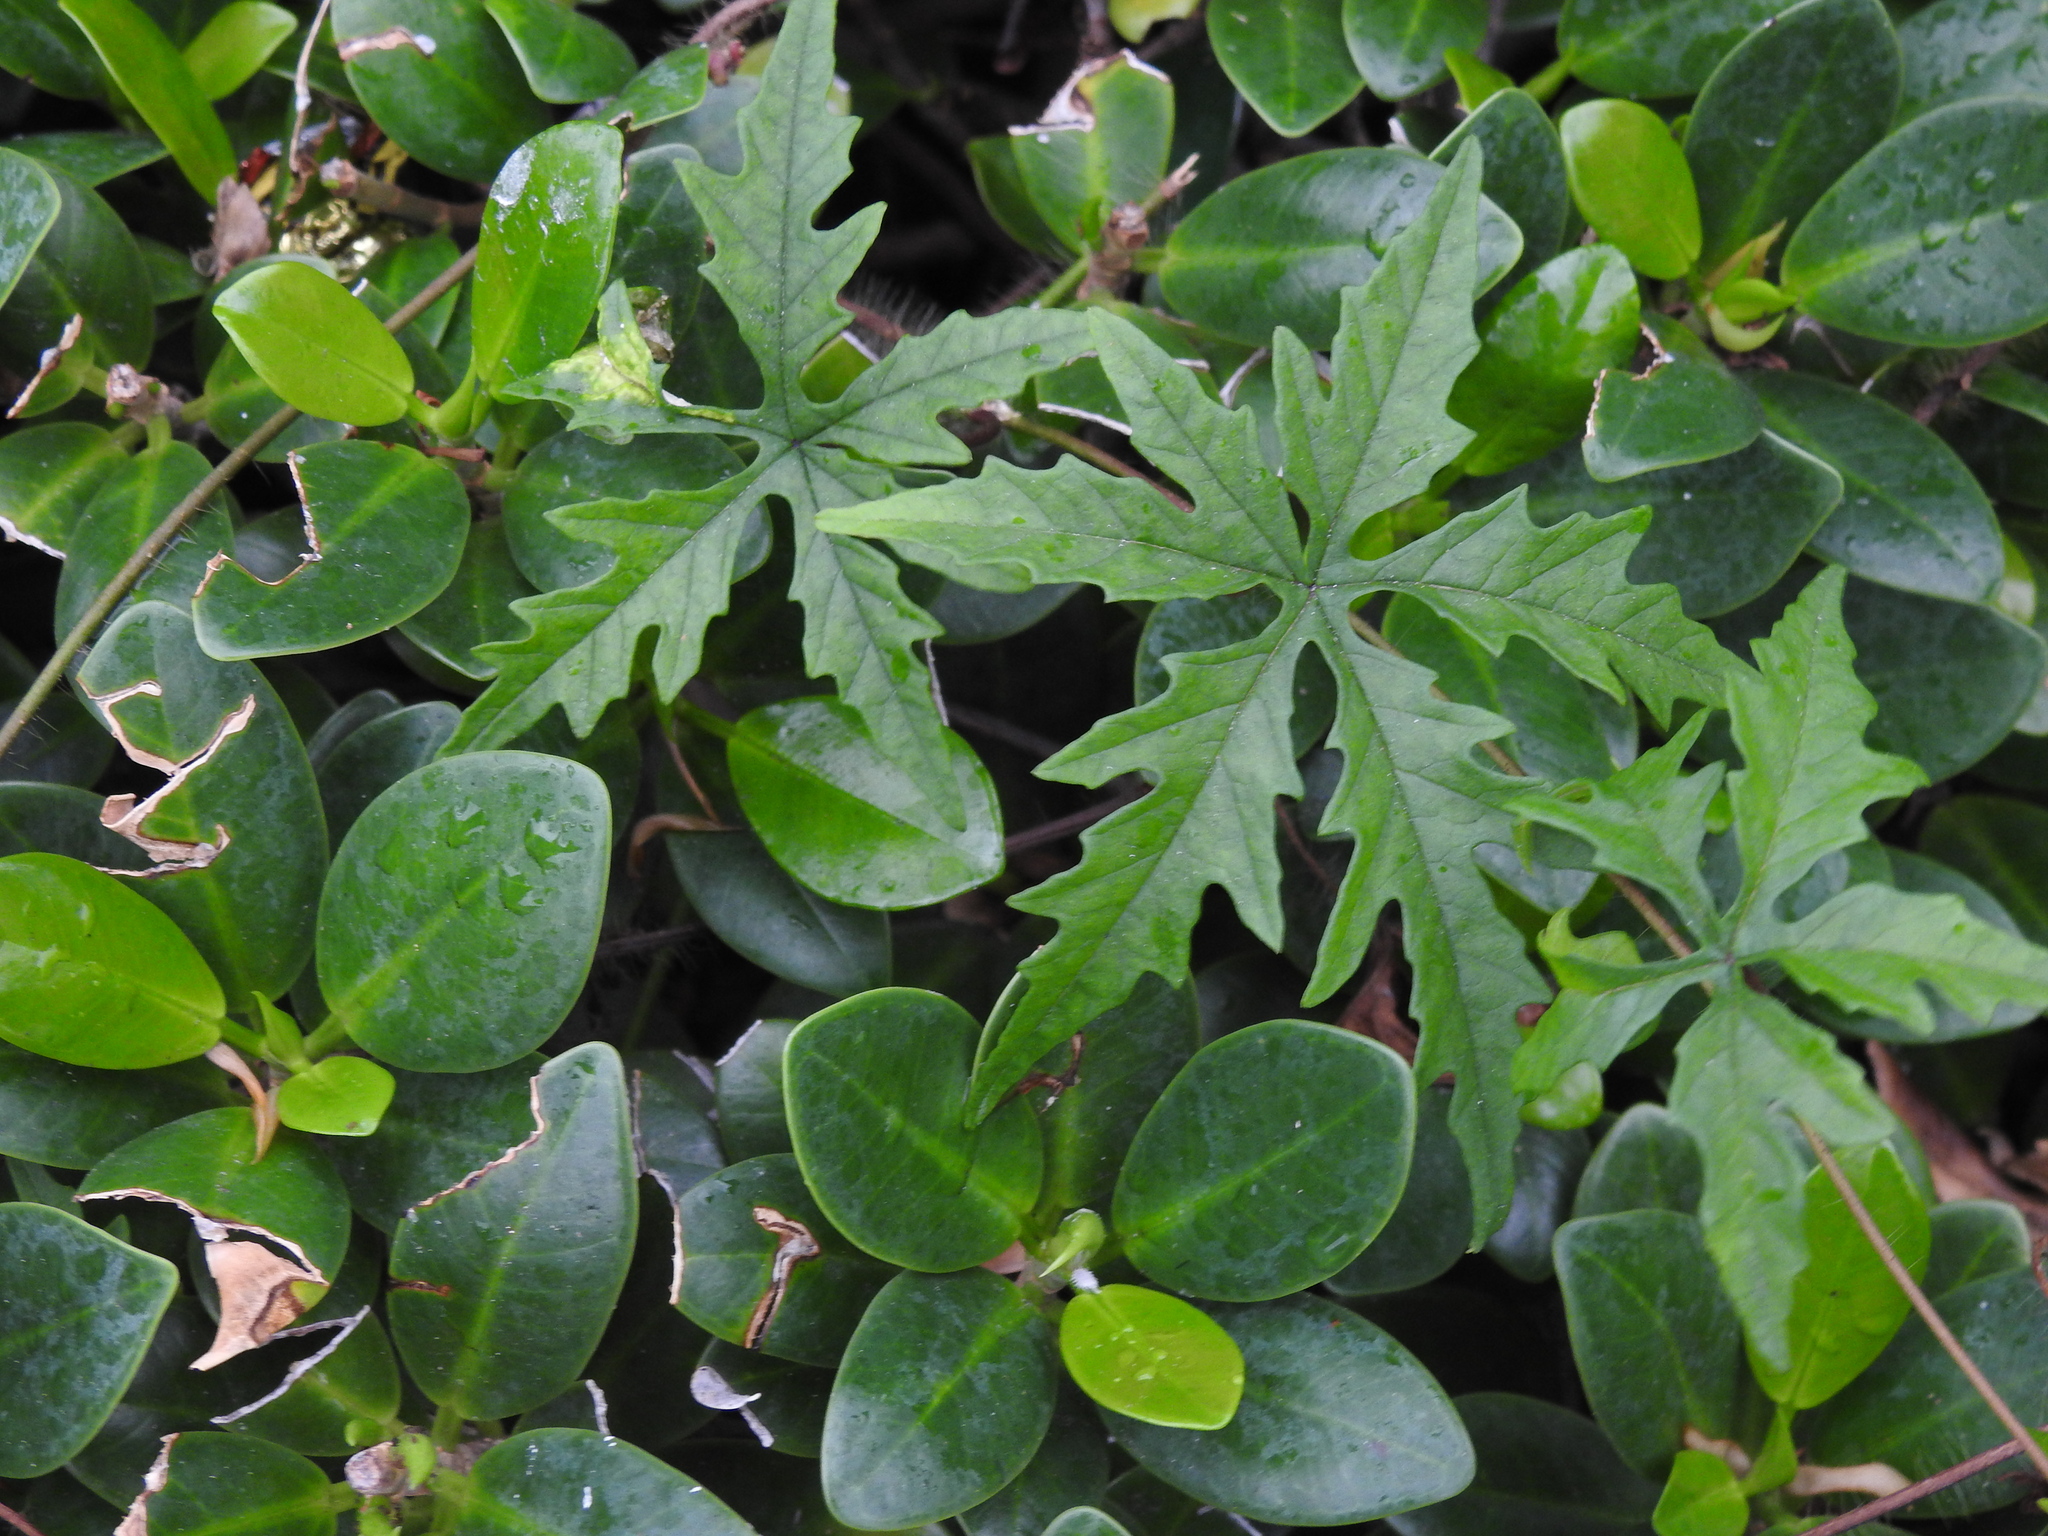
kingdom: Plantae
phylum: Tracheophyta
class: Magnoliopsida
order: Solanales
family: Convolvulaceae
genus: Distimake
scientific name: Distimake dissectus
